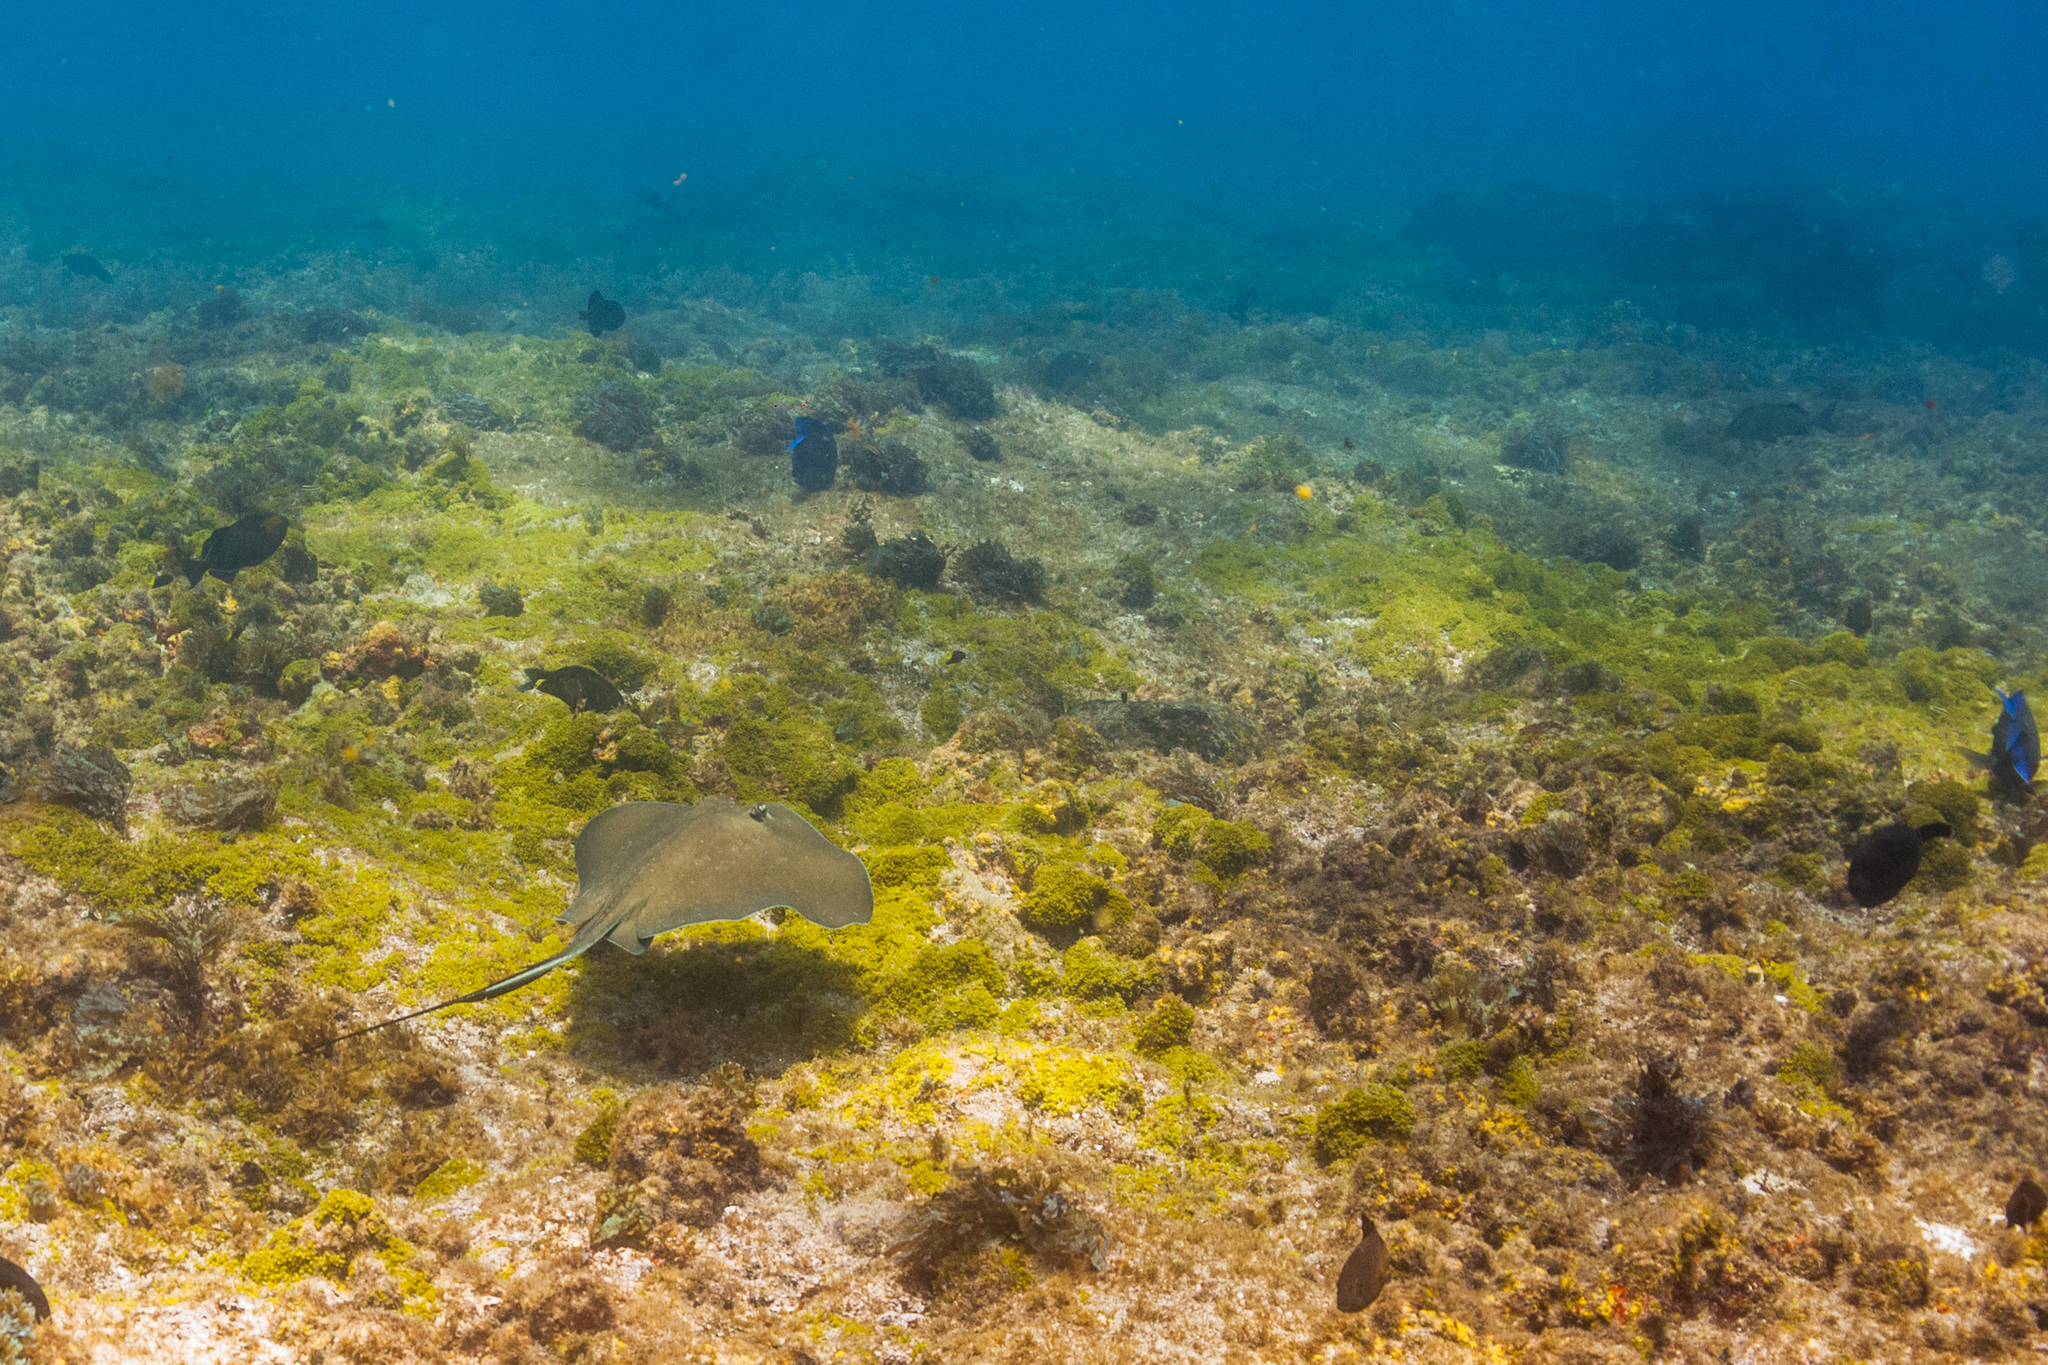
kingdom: Animalia
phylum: Chordata
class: Elasmobranchii
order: Myliobatiformes
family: Dasyatidae
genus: Hypanus
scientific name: Hypanus berthalutzae
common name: Lutz's stingray
